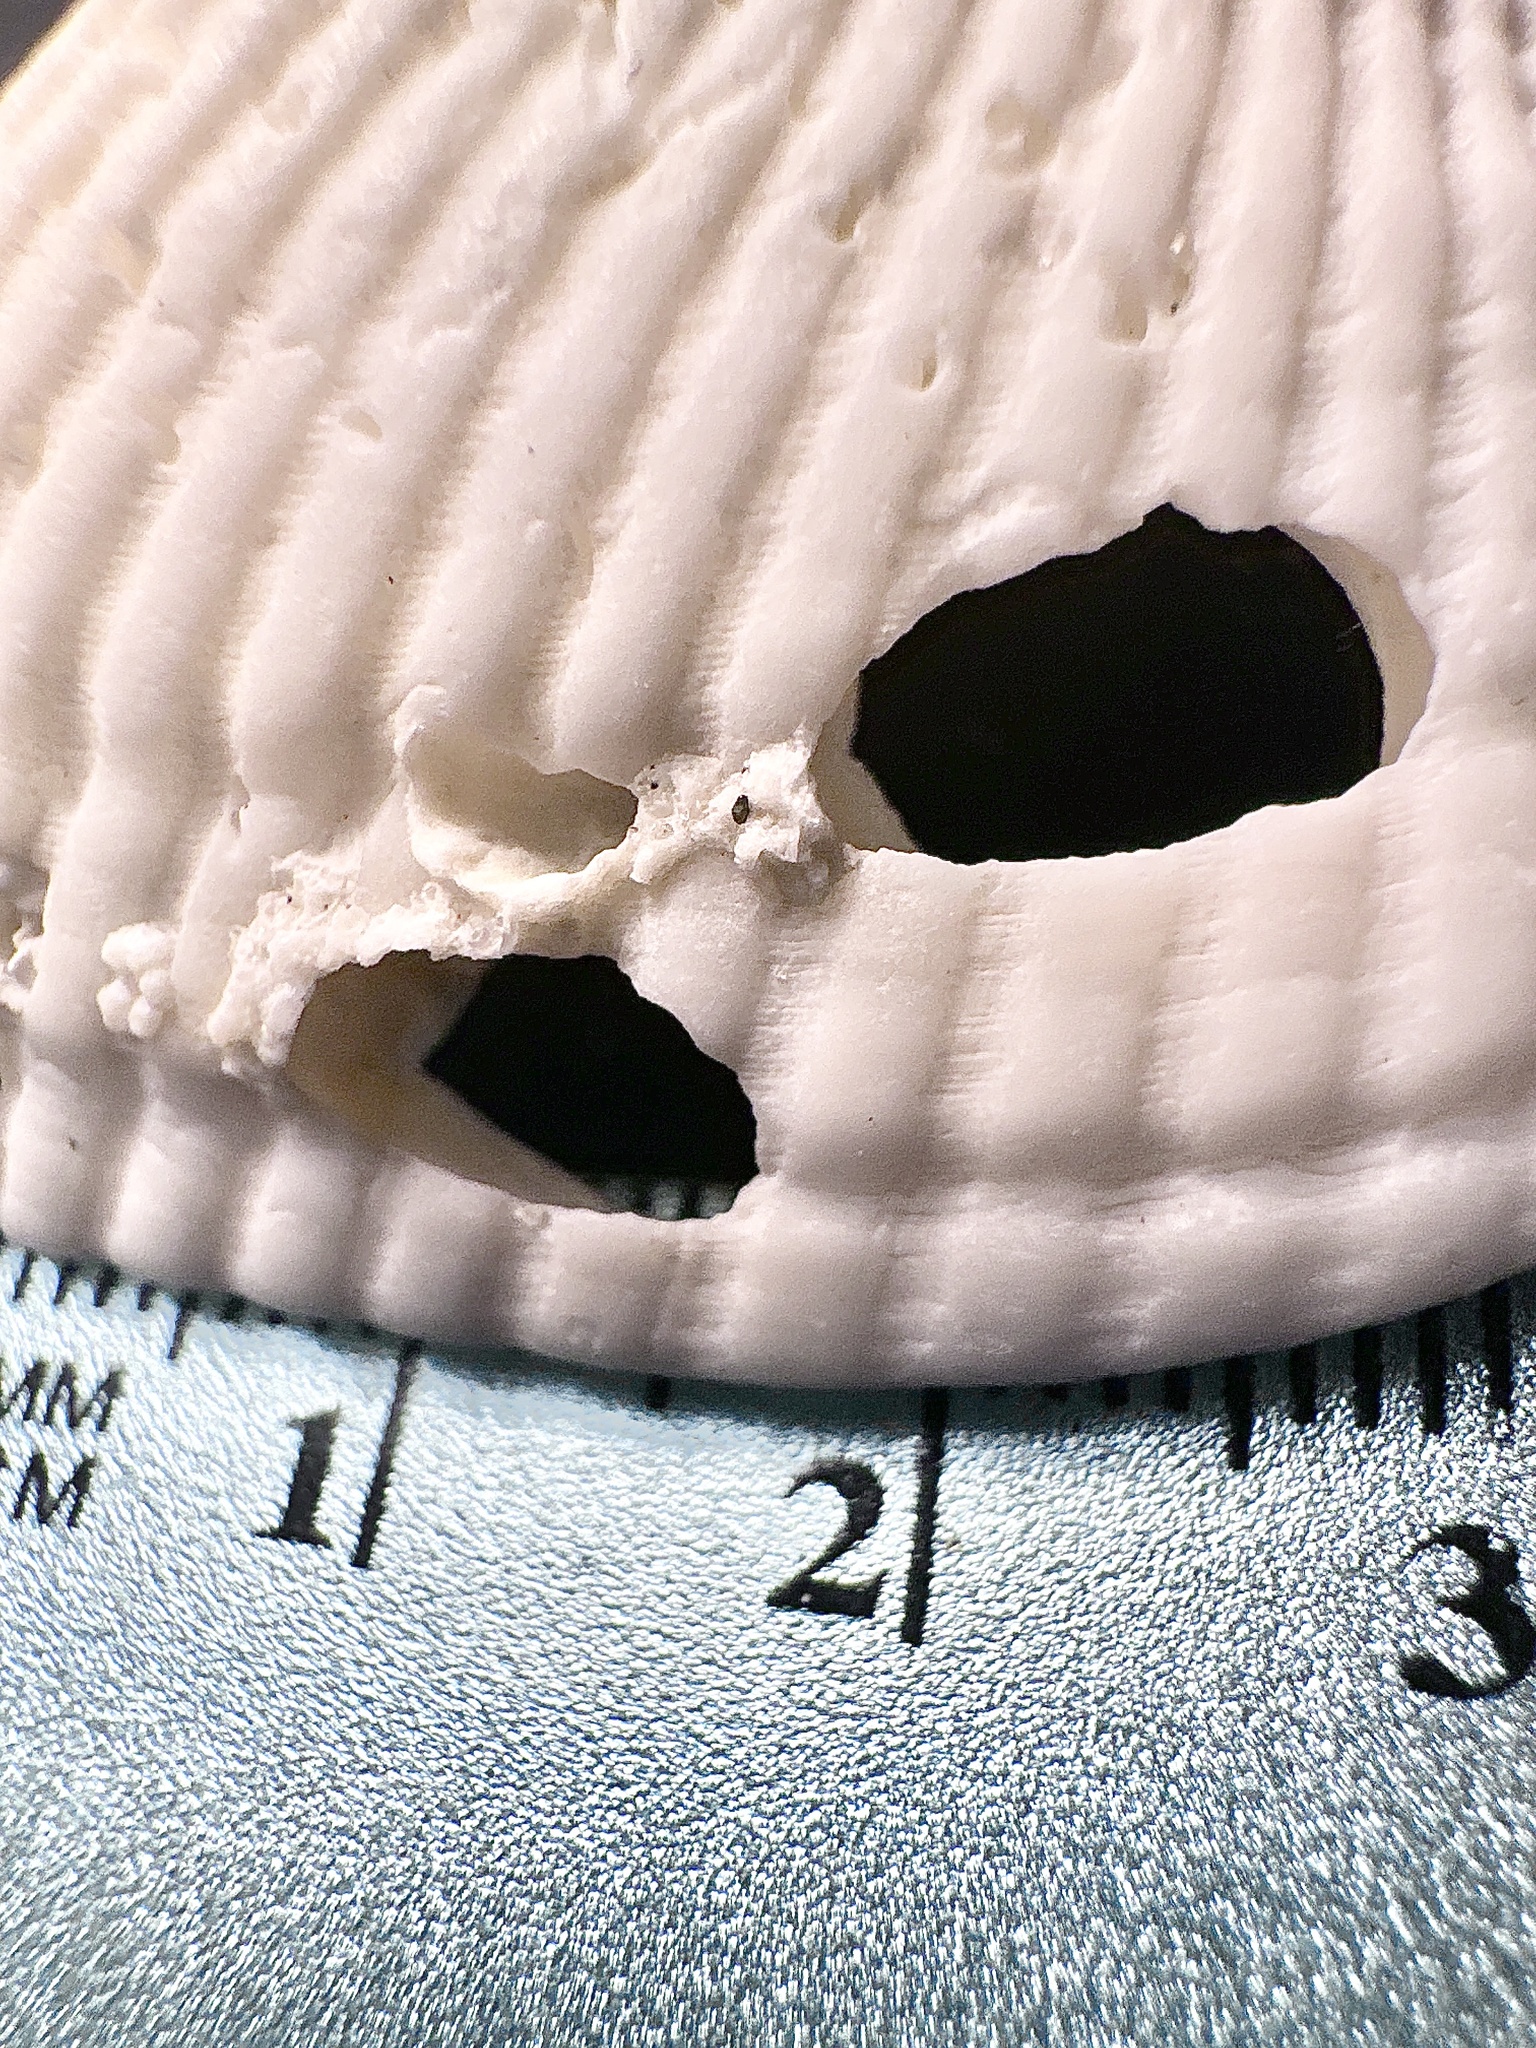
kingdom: Animalia
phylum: Mollusca
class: Bivalvia
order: Gastrochaenida
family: Gastrochaenidae
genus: Rocellaria
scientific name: Rocellaria stimpsonii
